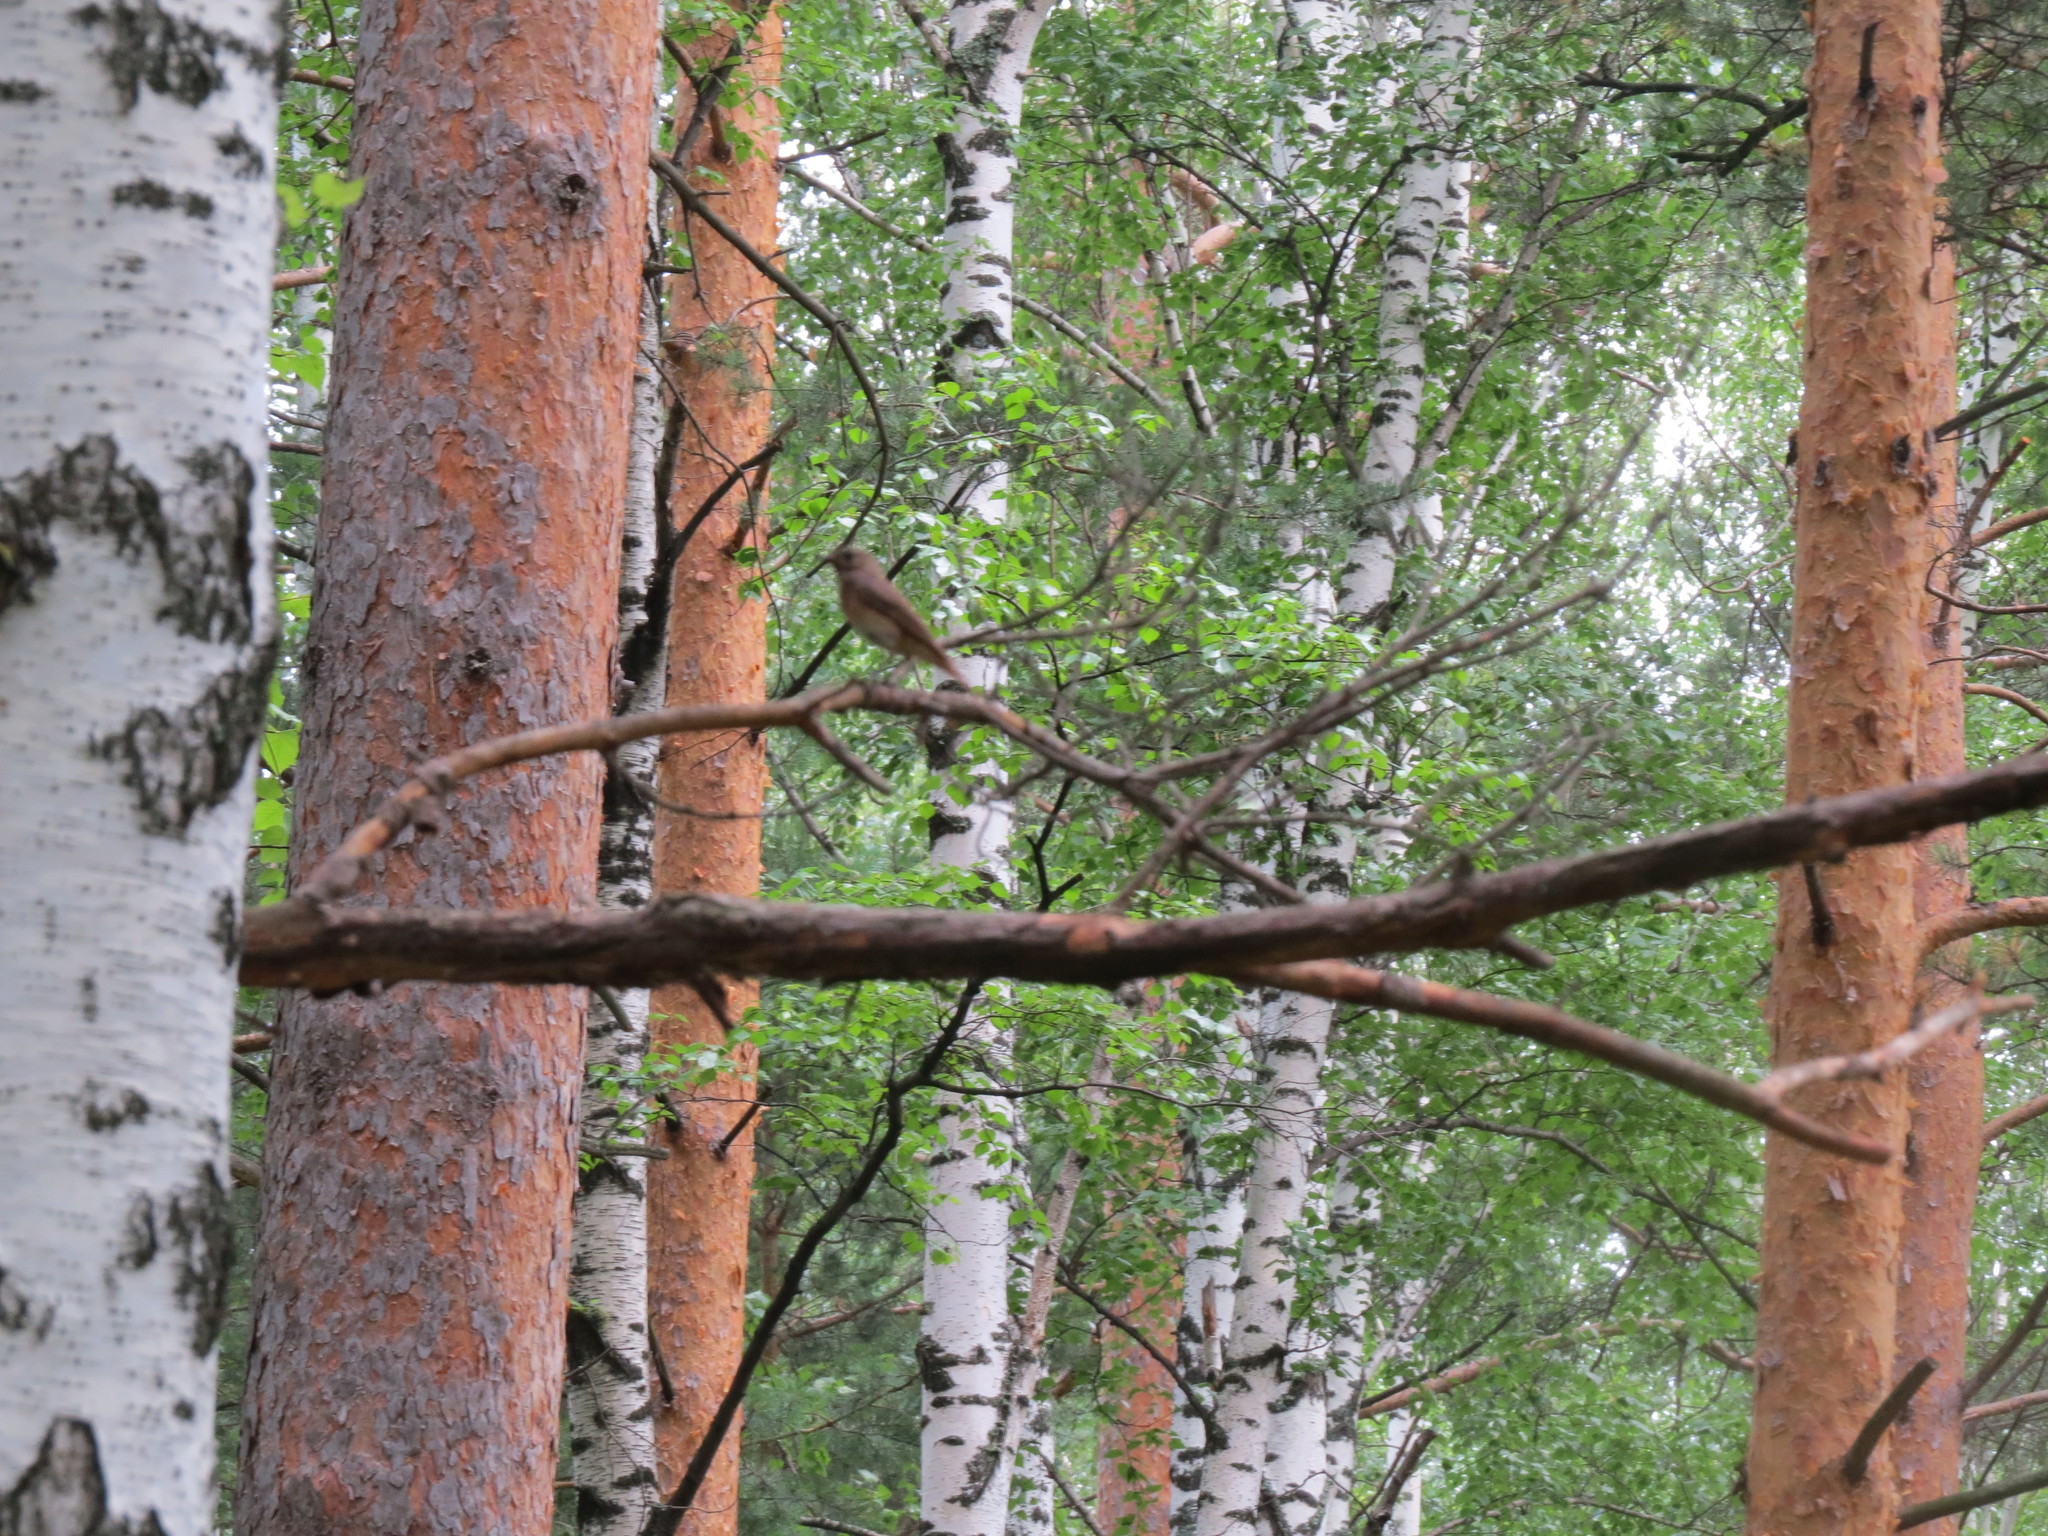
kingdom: Animalia
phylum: Chordata
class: Aves
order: Passeriformes
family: Muscicapidae
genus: Phoenicurus
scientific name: Phoenicurus phoenicurus
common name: Common redstart
